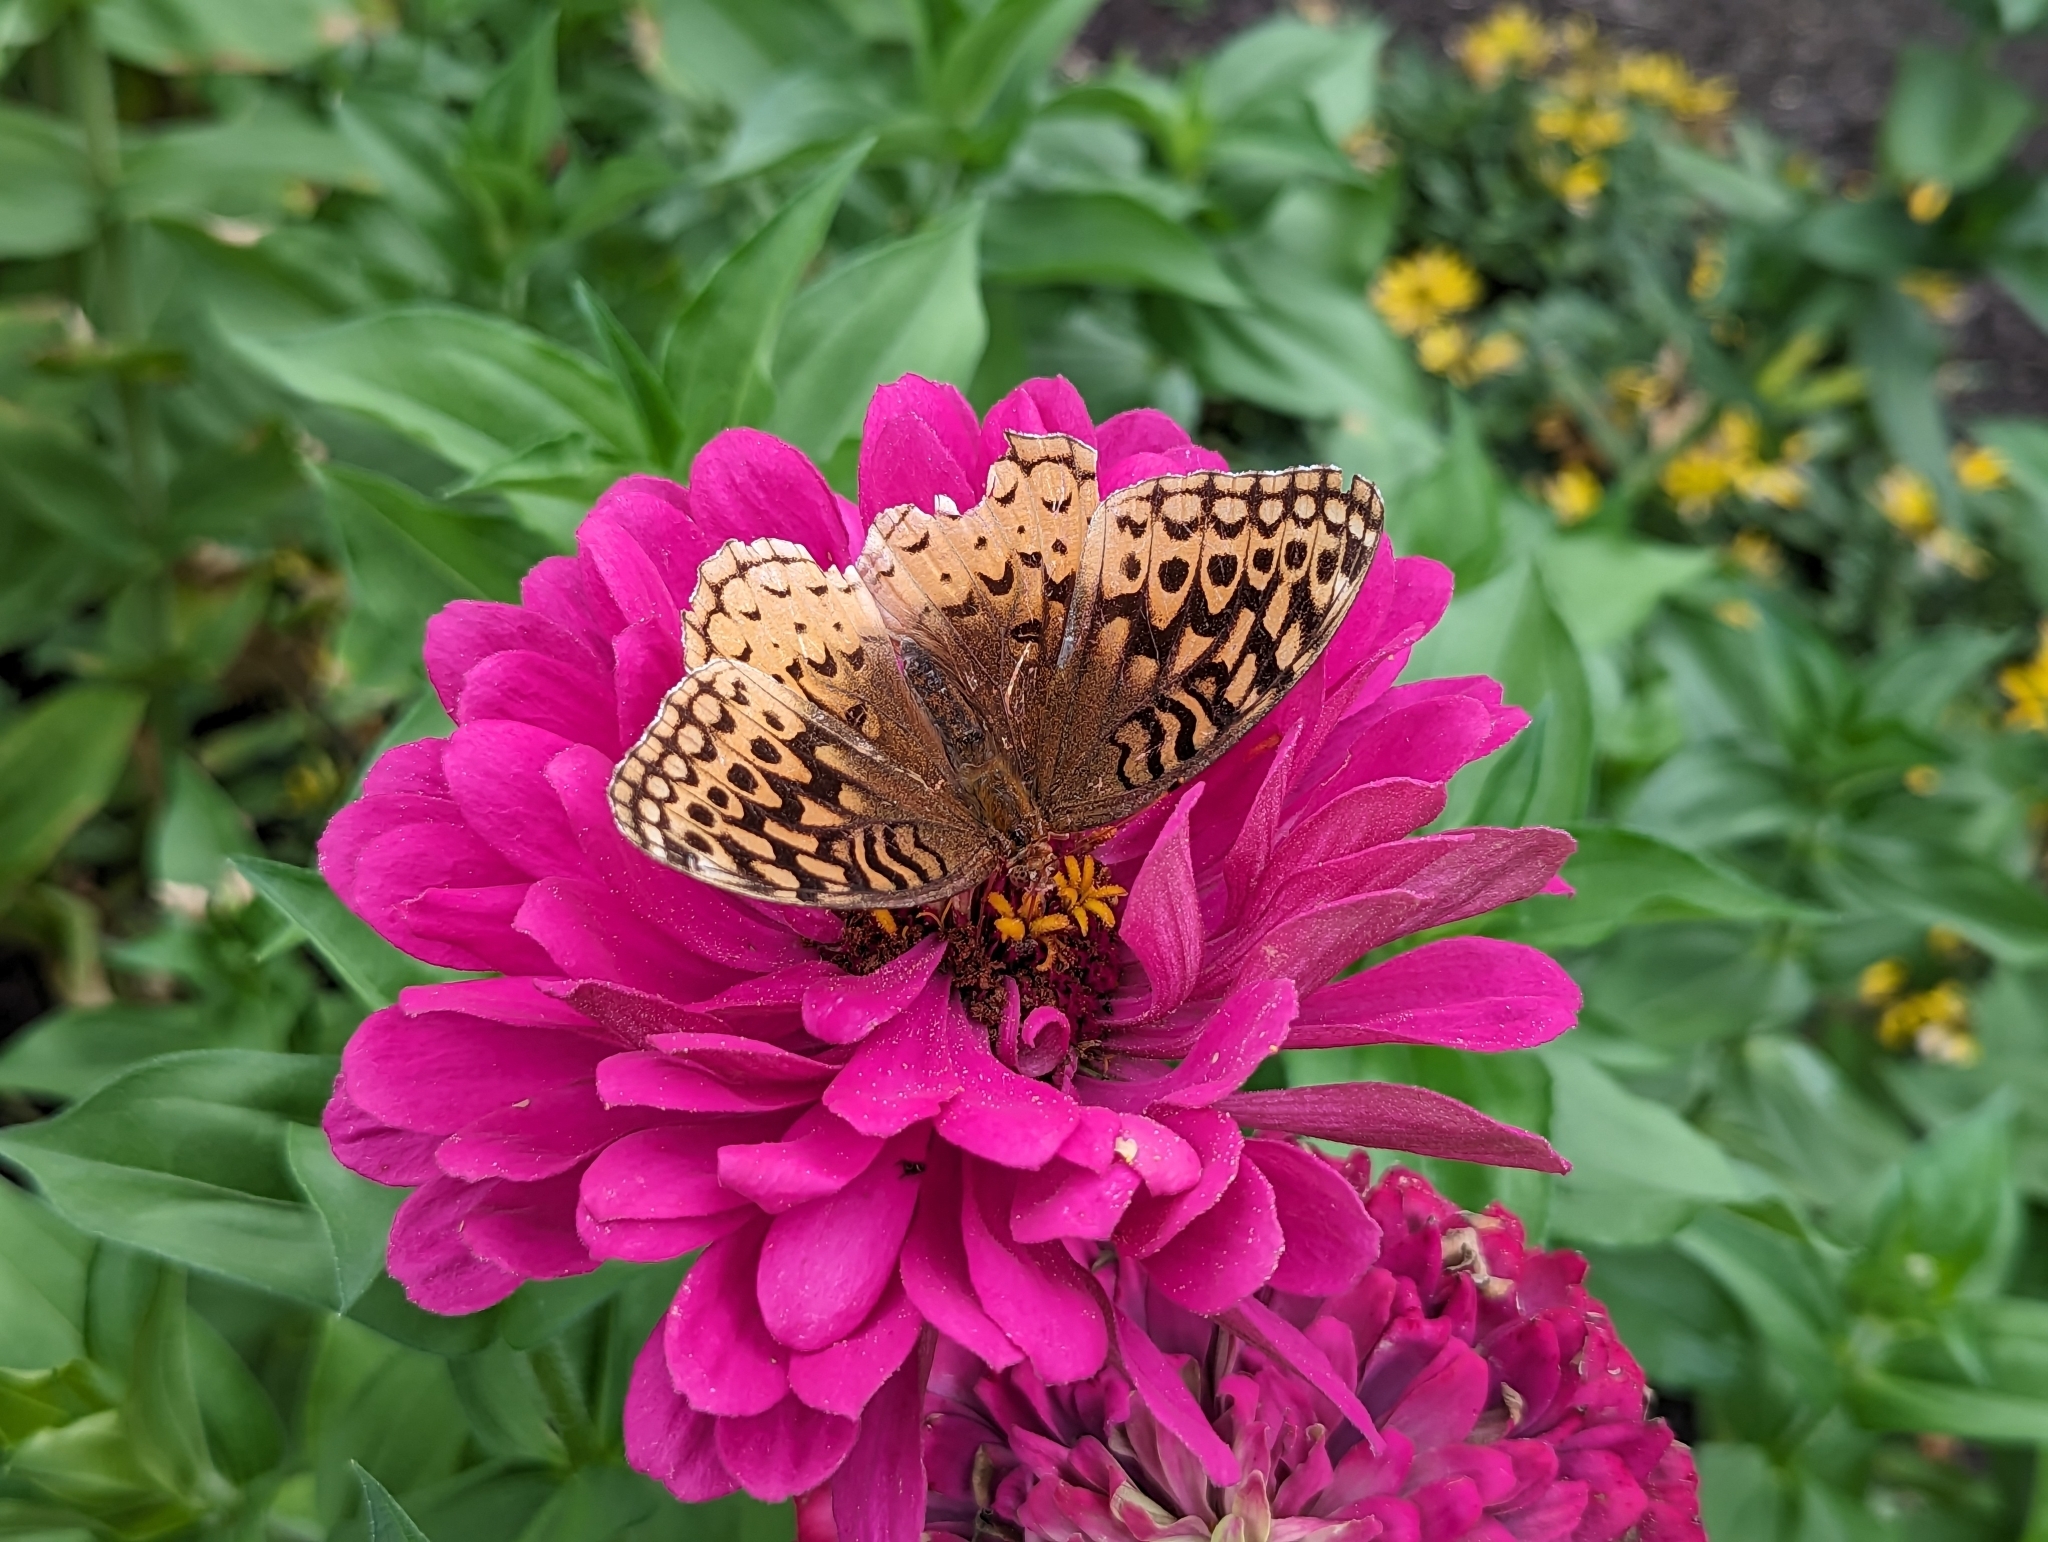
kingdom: Animalia
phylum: Arthropoda
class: Insecta
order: Lepidoptera
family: Nymphalidae
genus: Speyeria
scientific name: Speyeria cybele
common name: Great spangled fritillary
